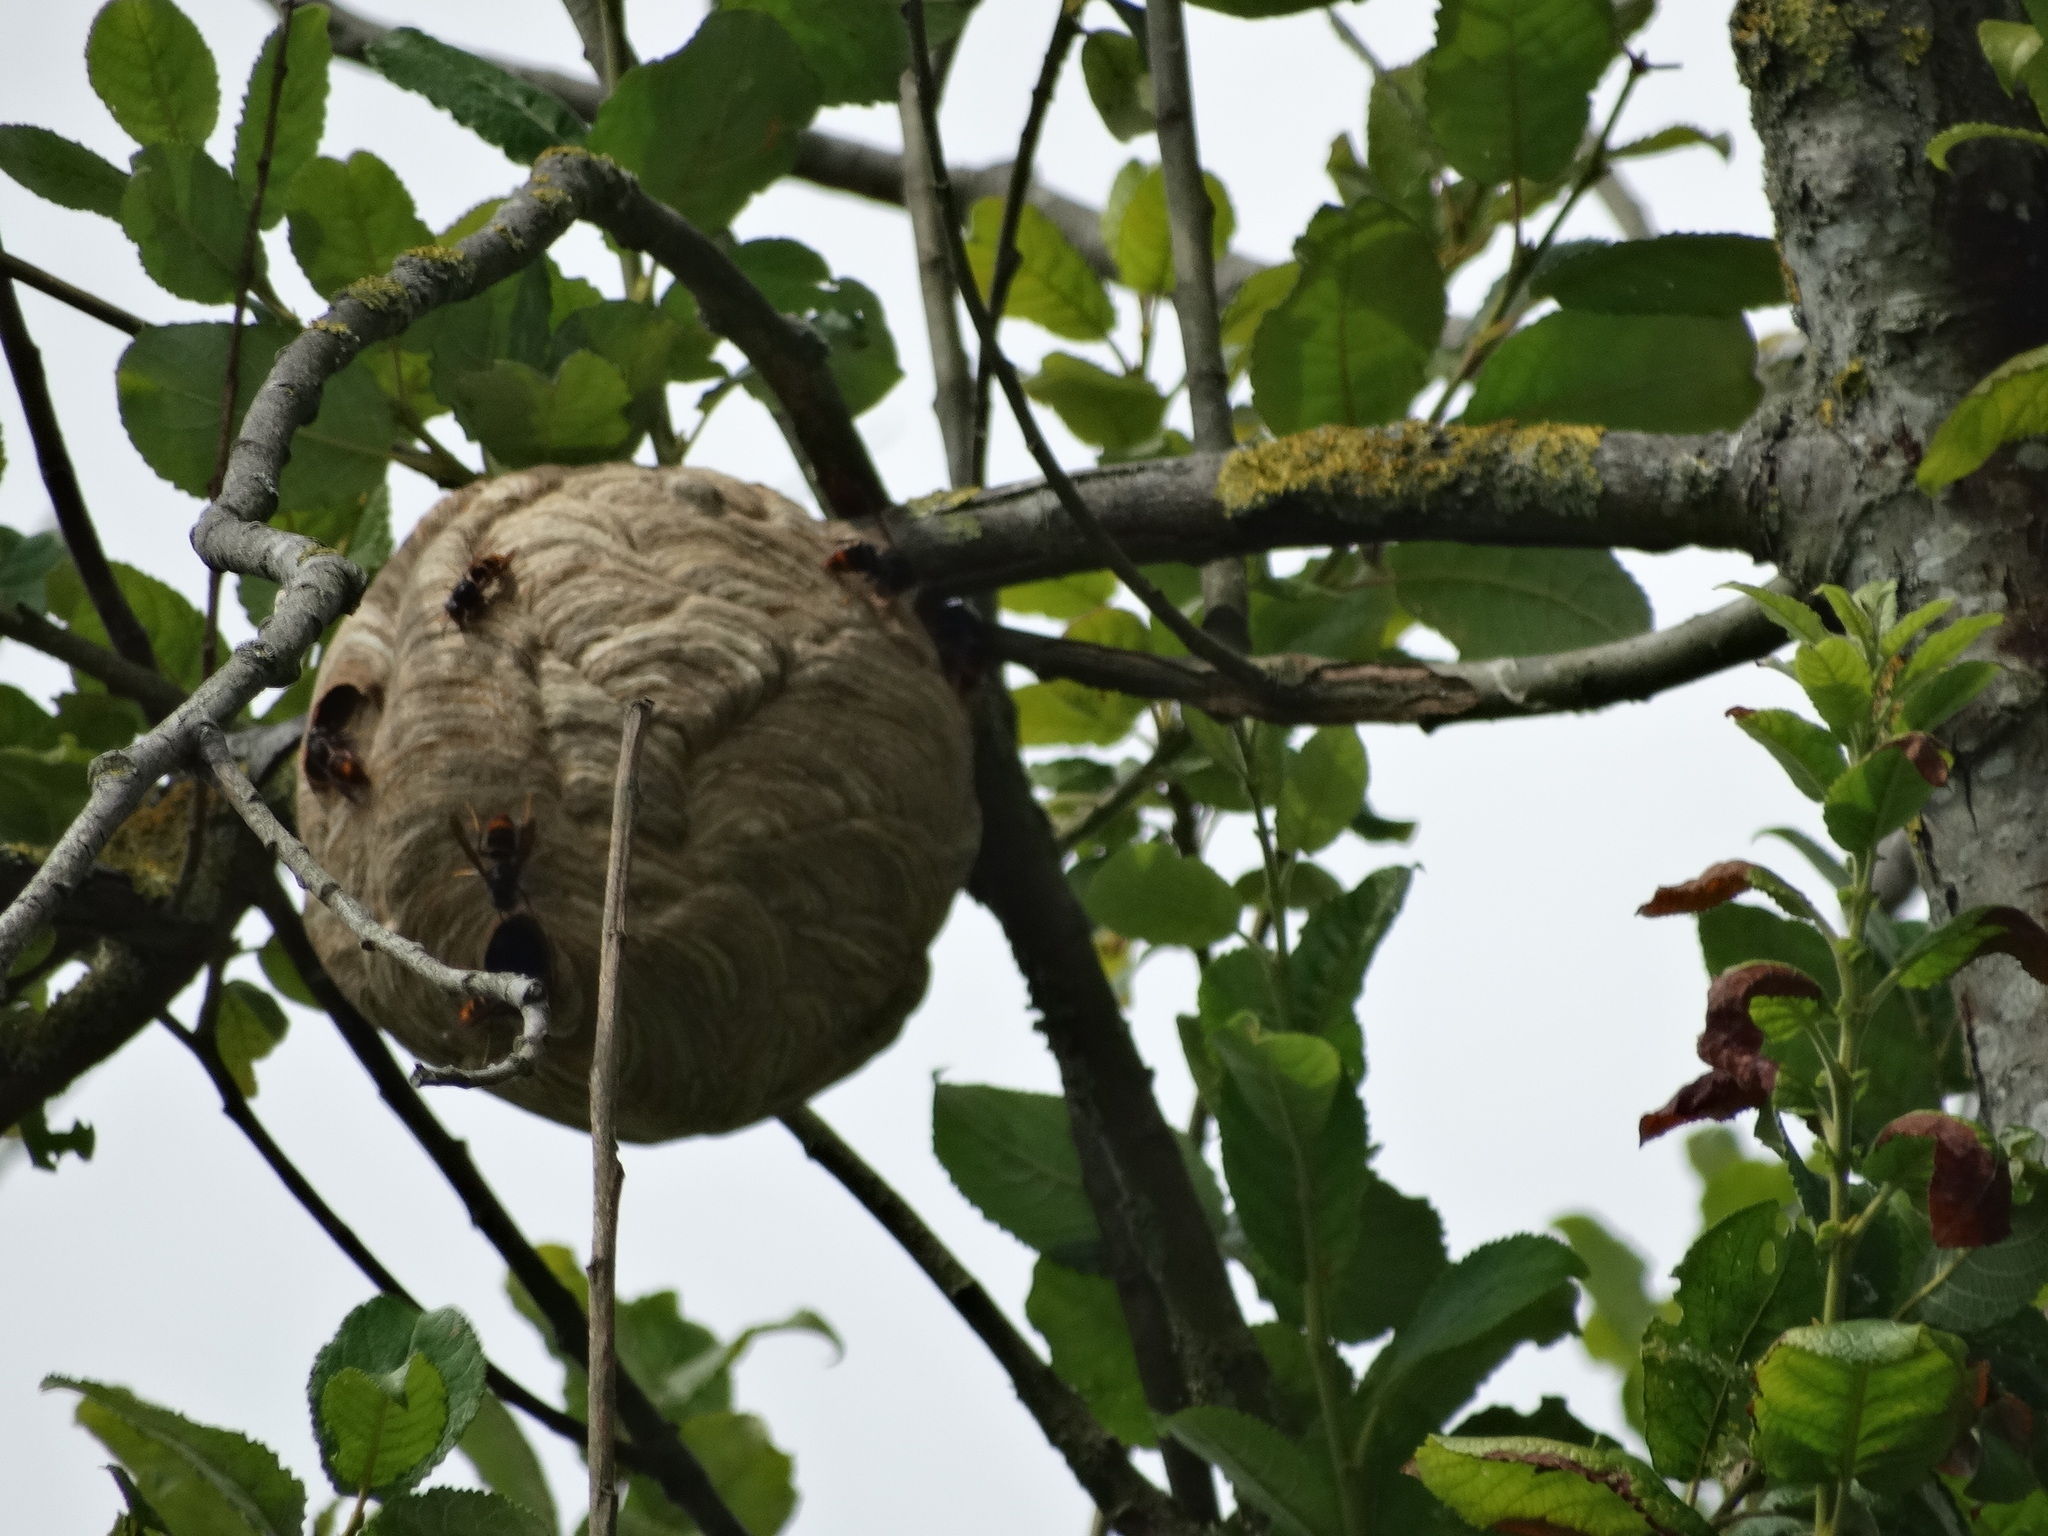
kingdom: Animalia
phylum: Arthropoda
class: Insecta
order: Hymenoptera
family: Vespidae
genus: Vespa
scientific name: Vespa velutina
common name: Asian hornet
